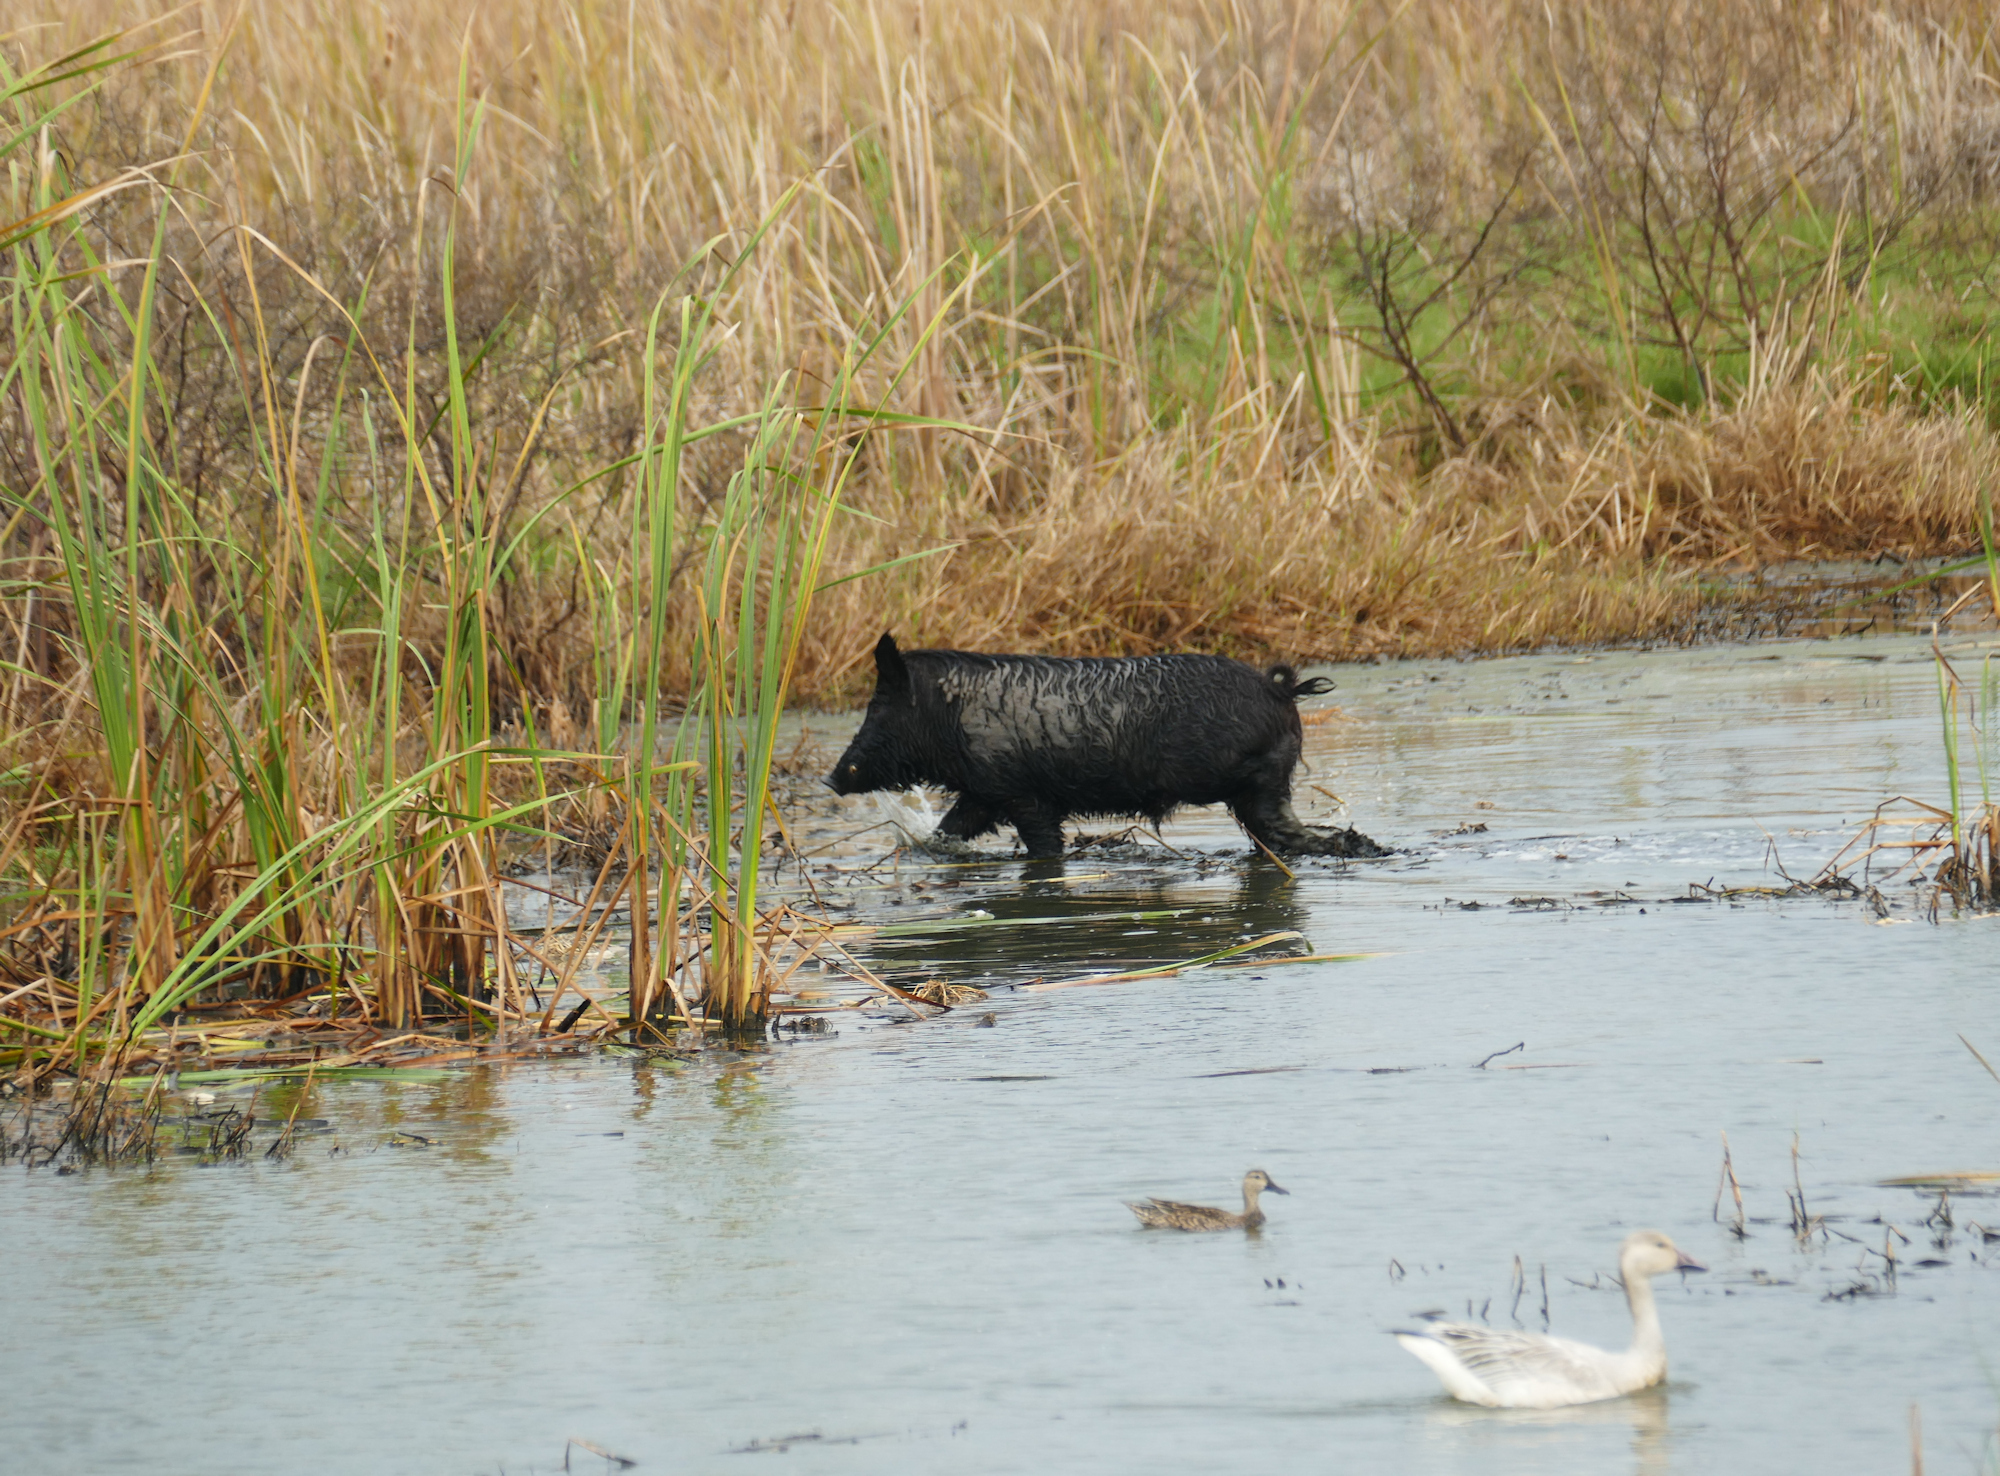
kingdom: Animalia
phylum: Chordata
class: Mammalia
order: Artiodactyla
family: Suidae
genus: Sus
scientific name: Sus scrofa
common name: Wild boar
